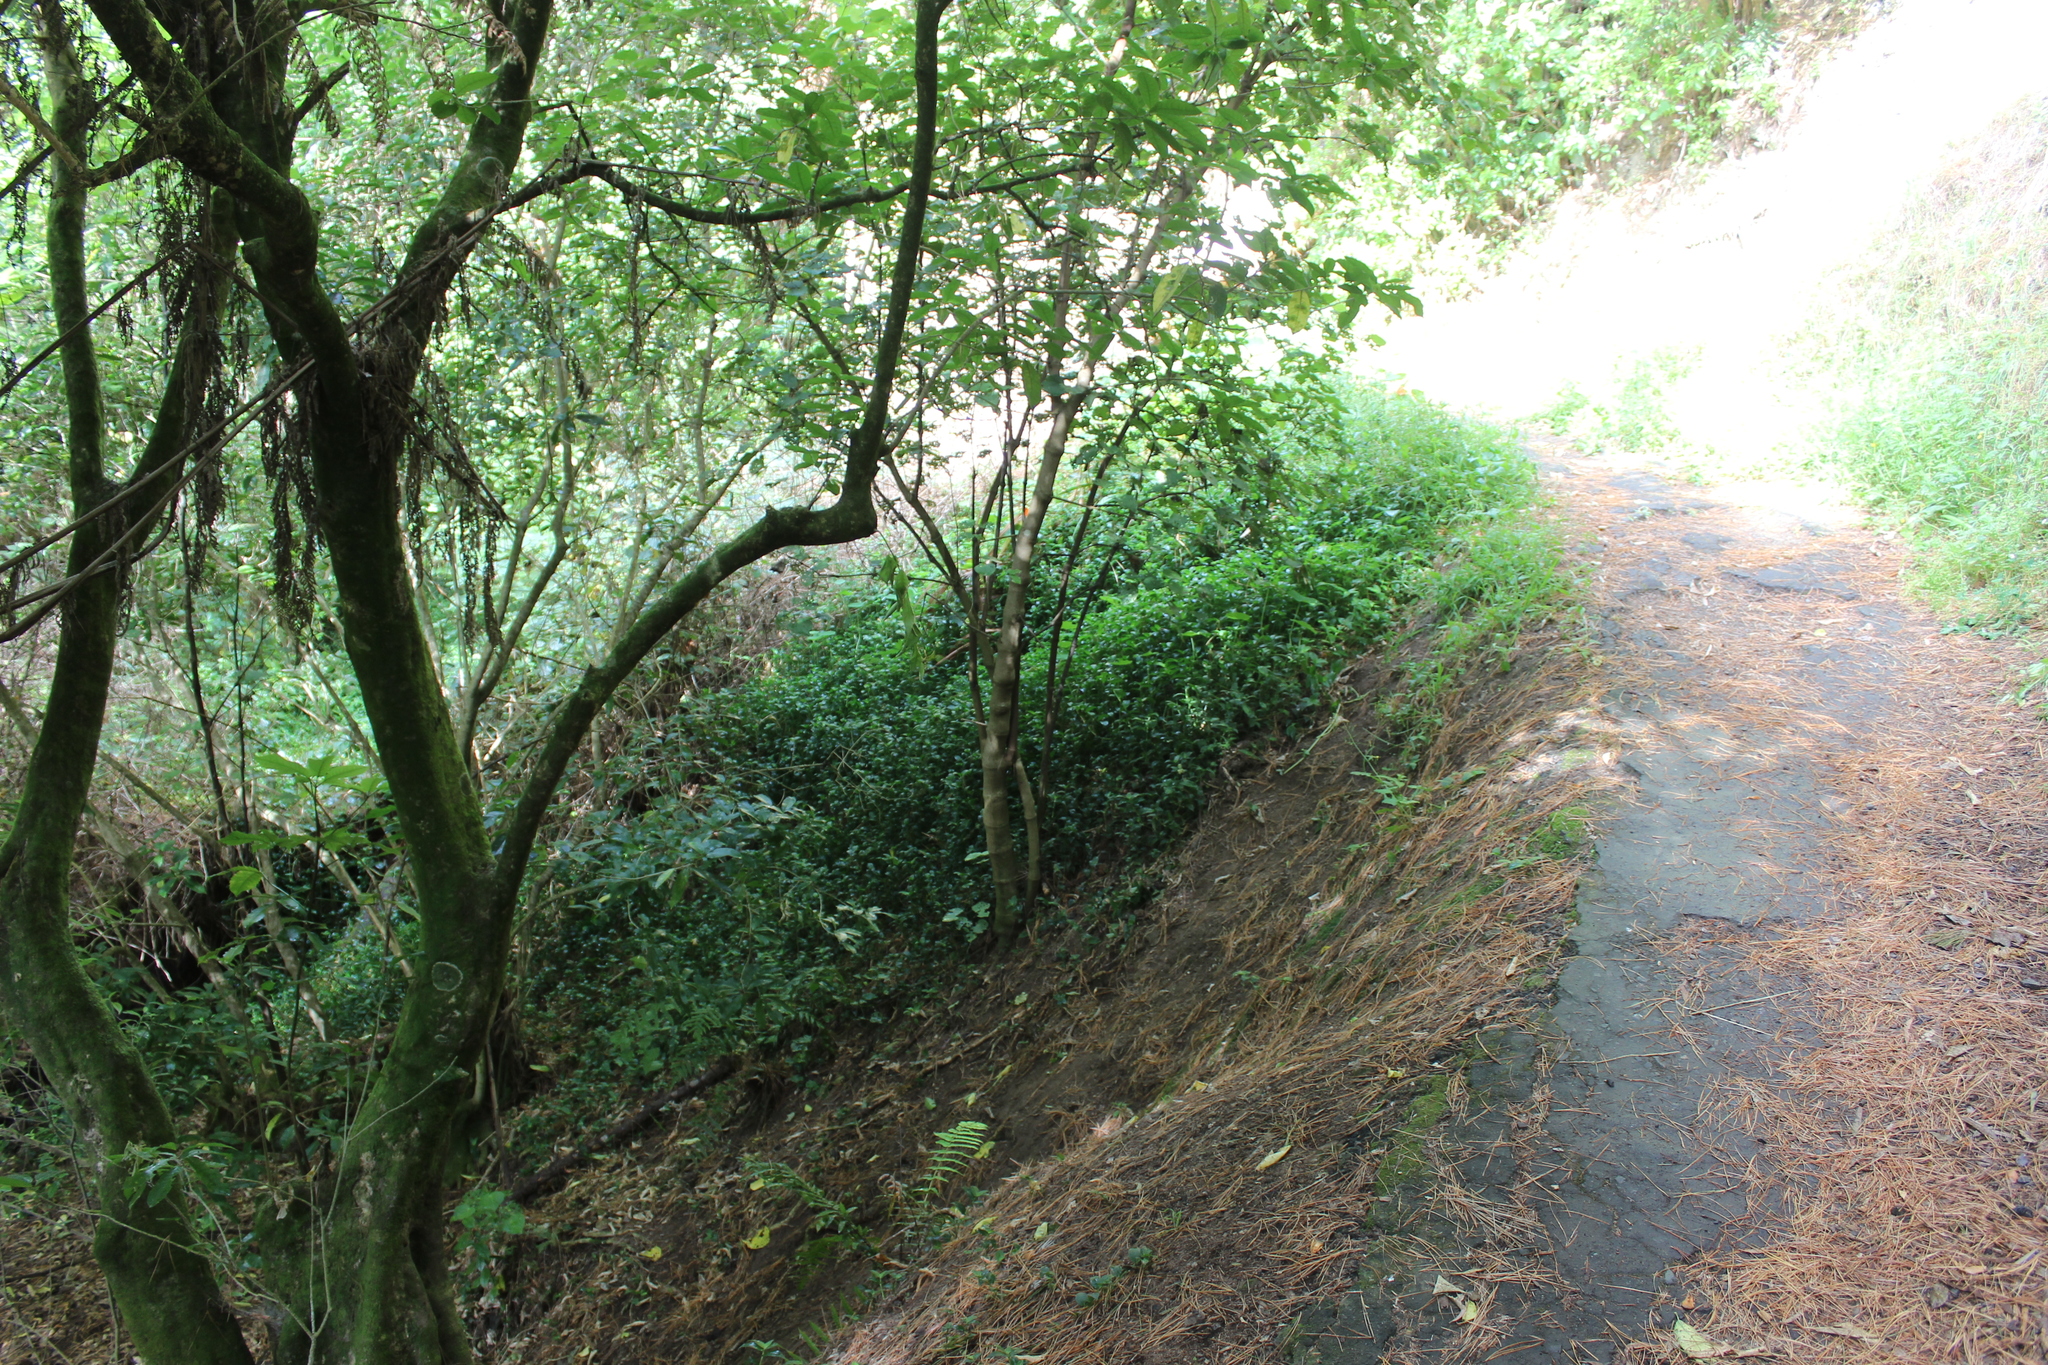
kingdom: Plantae
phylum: Tracheophyta
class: Liliopsida
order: Commelinales
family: Commelinaceae
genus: Tradescantia
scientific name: Tradescantia fluminensis
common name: Wandering-jew
